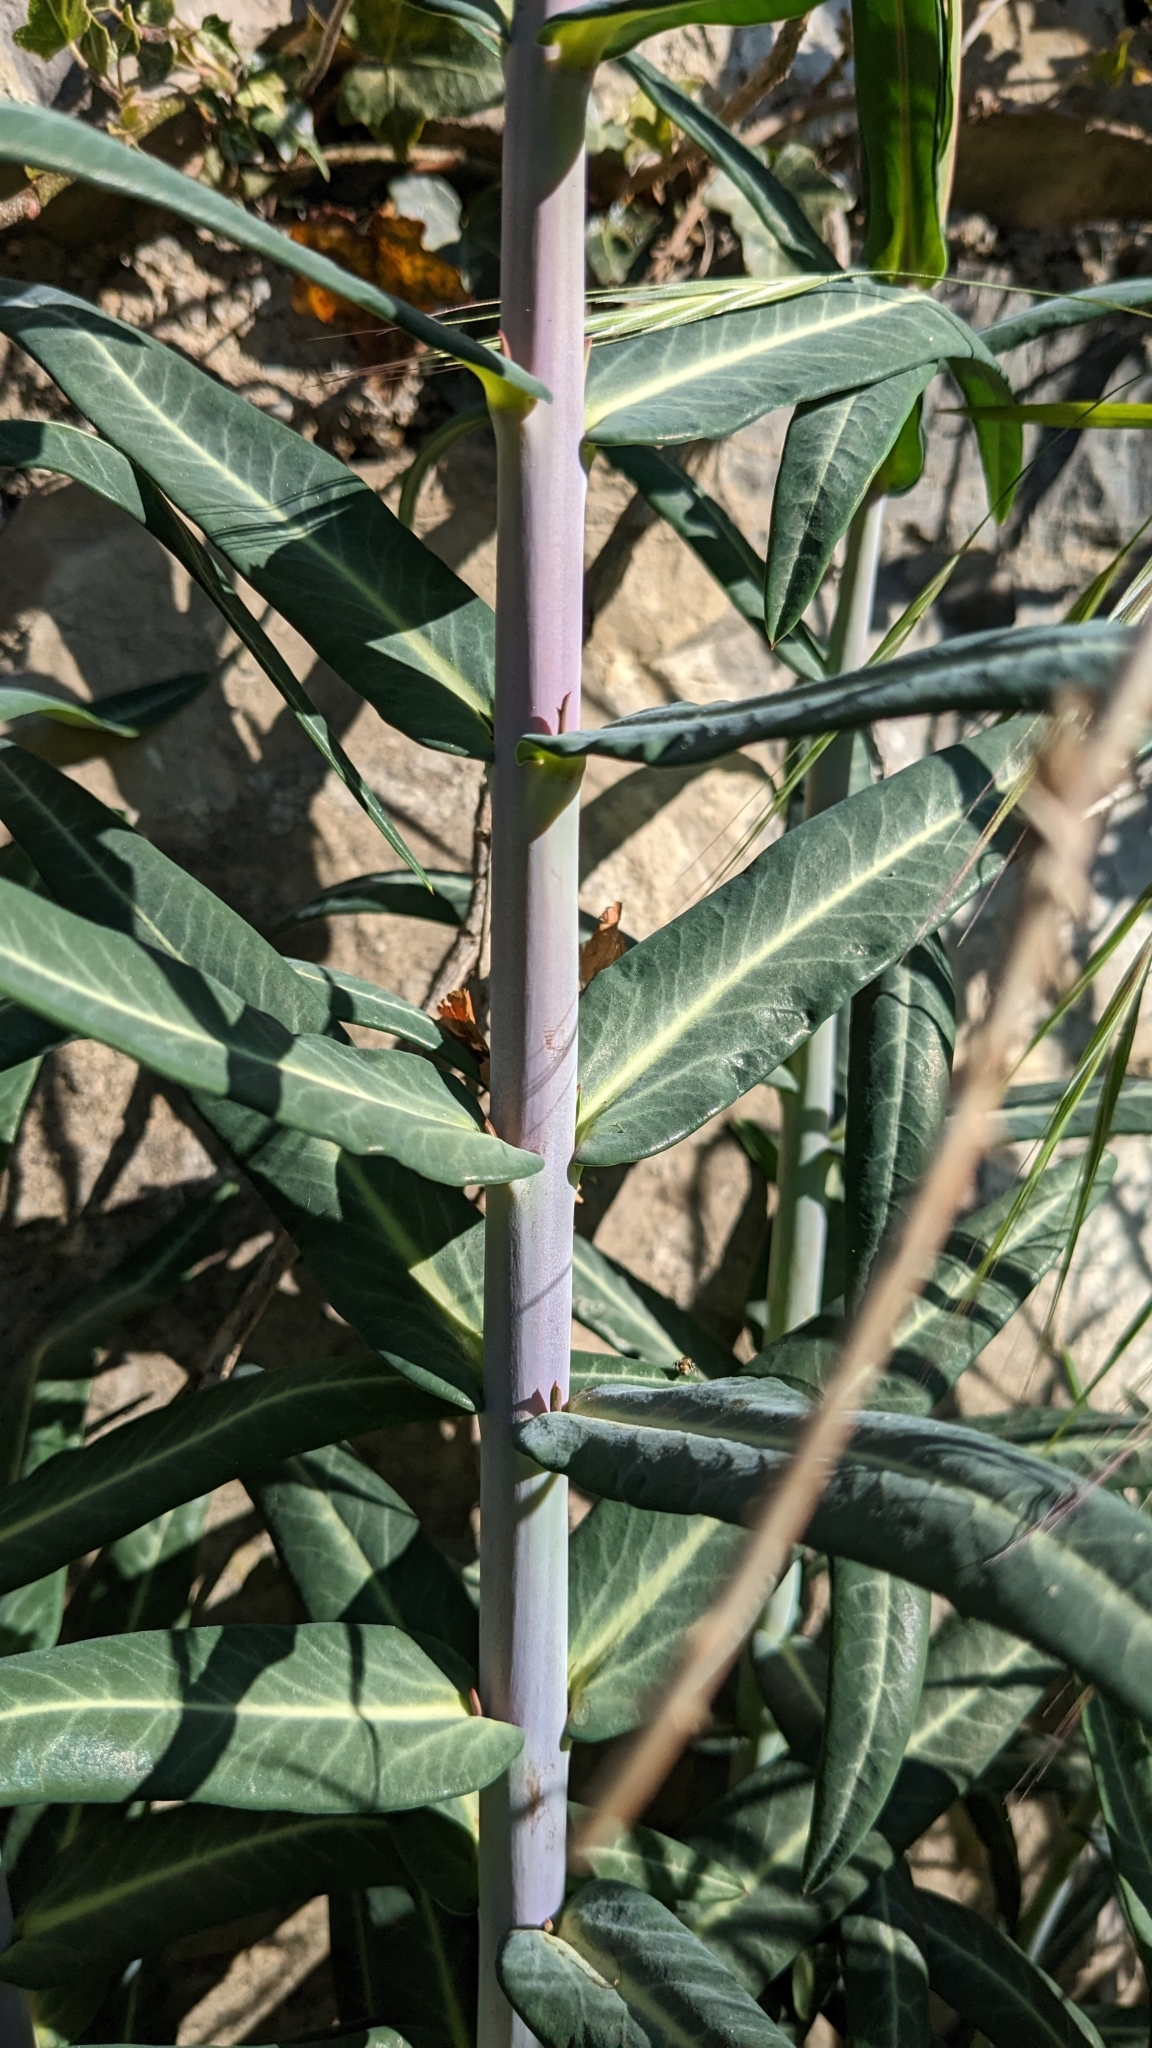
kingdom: Plantae
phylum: Tracheophyta
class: Magnoliopsida
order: Malpighiales
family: Euphorbiaceae
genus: Euphorbia
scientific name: Euphorbia lathyris
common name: Caper spurge
